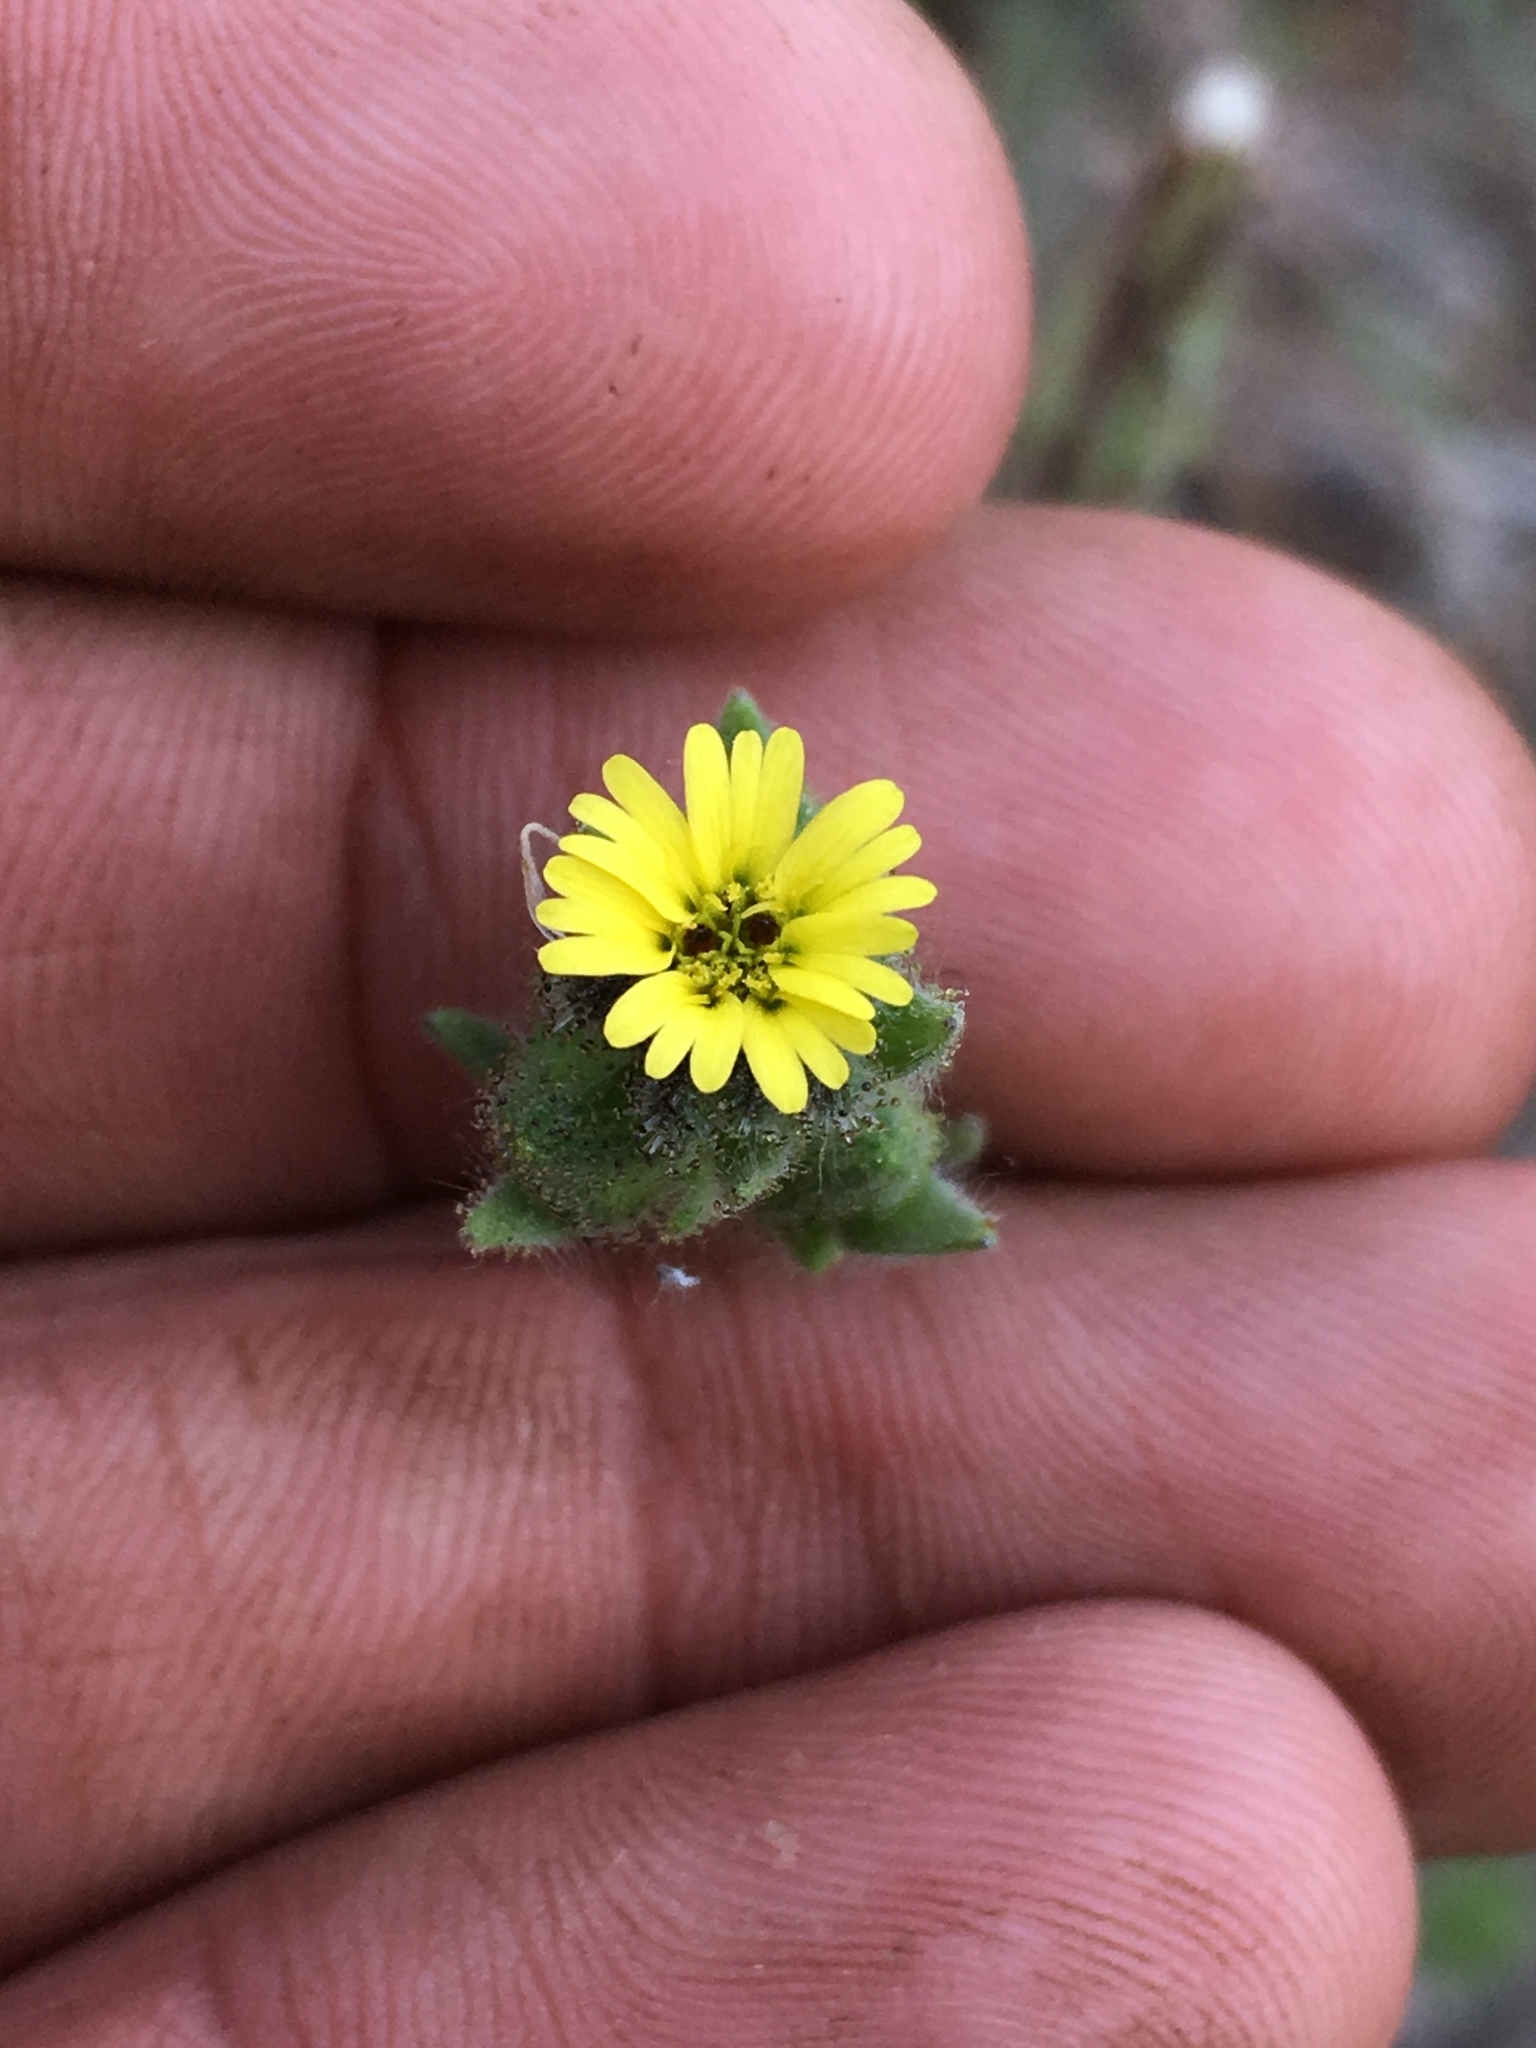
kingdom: Plantae
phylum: Tracheophyta
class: Magnoliopsida
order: Asterales
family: Asteraceae
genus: Madia
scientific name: Madia gracilis
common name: Grassy tarweed
